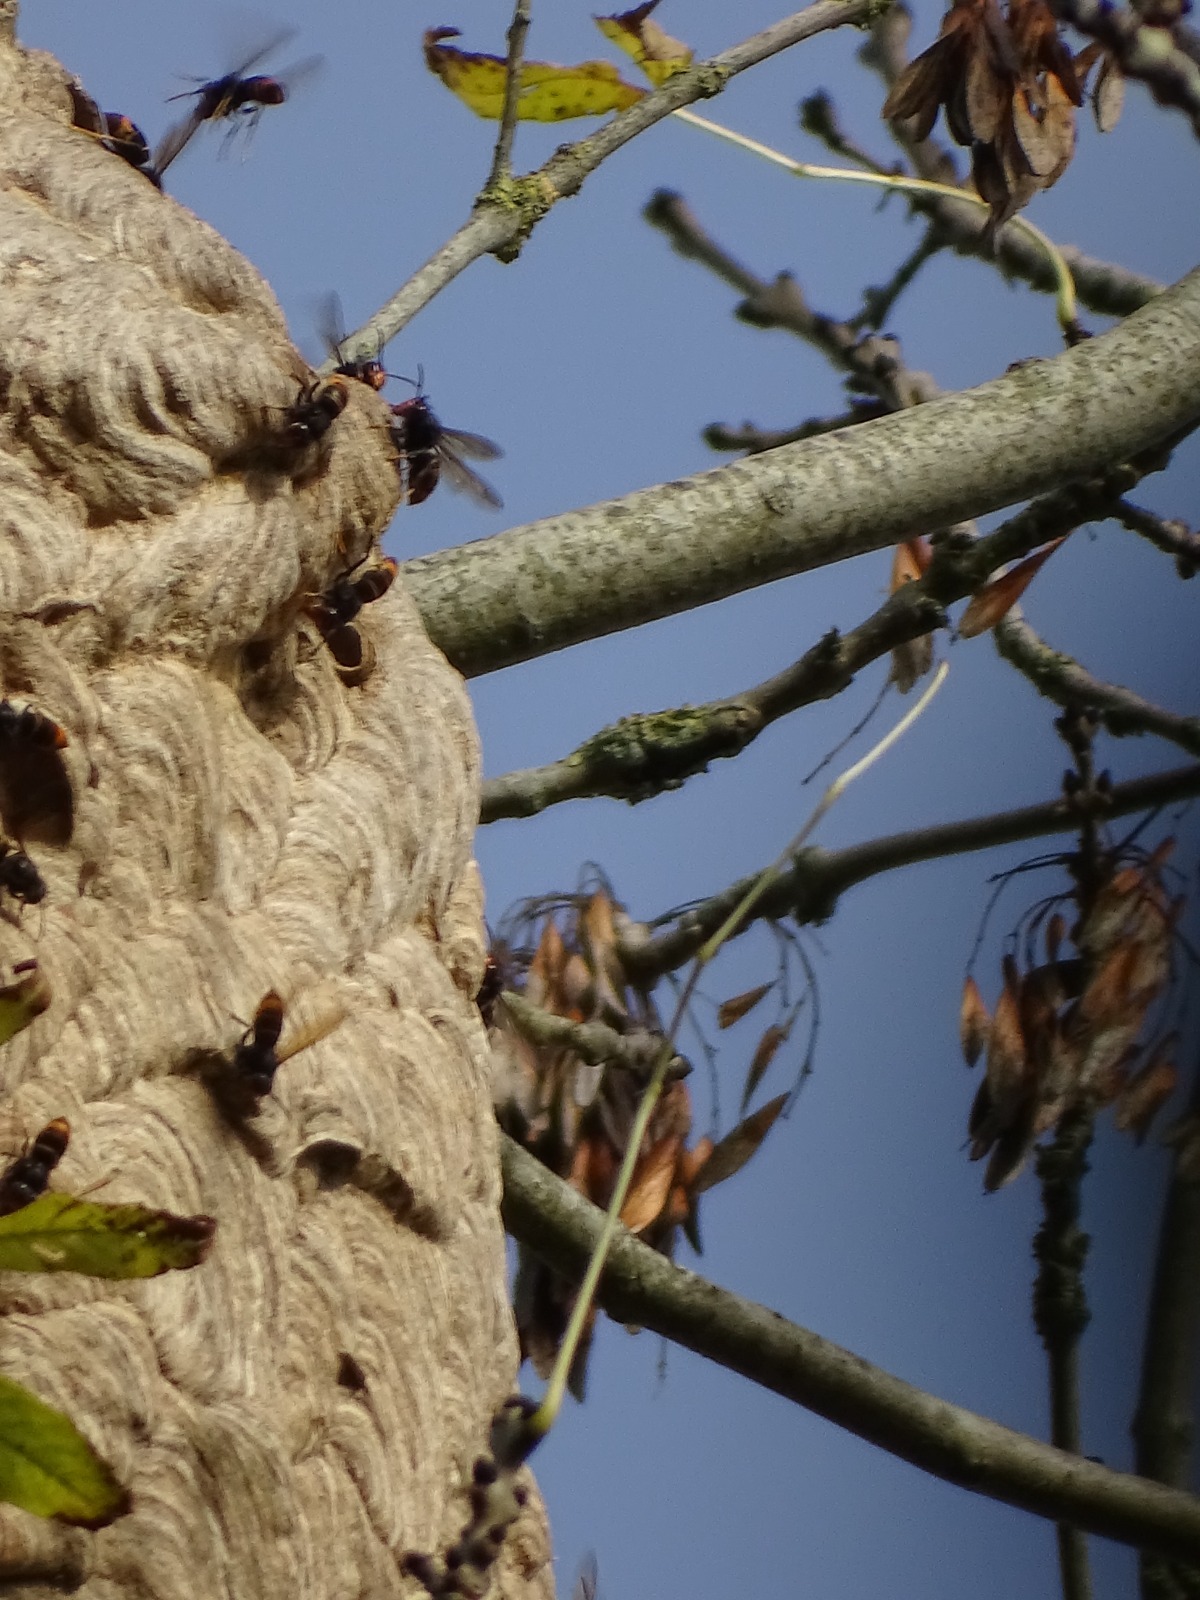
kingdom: Animalia
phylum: Arthropoda
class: Insecta
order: Hymenoptera
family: Vespidae
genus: Vespa
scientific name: Vespa velutina
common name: Asian hornet
